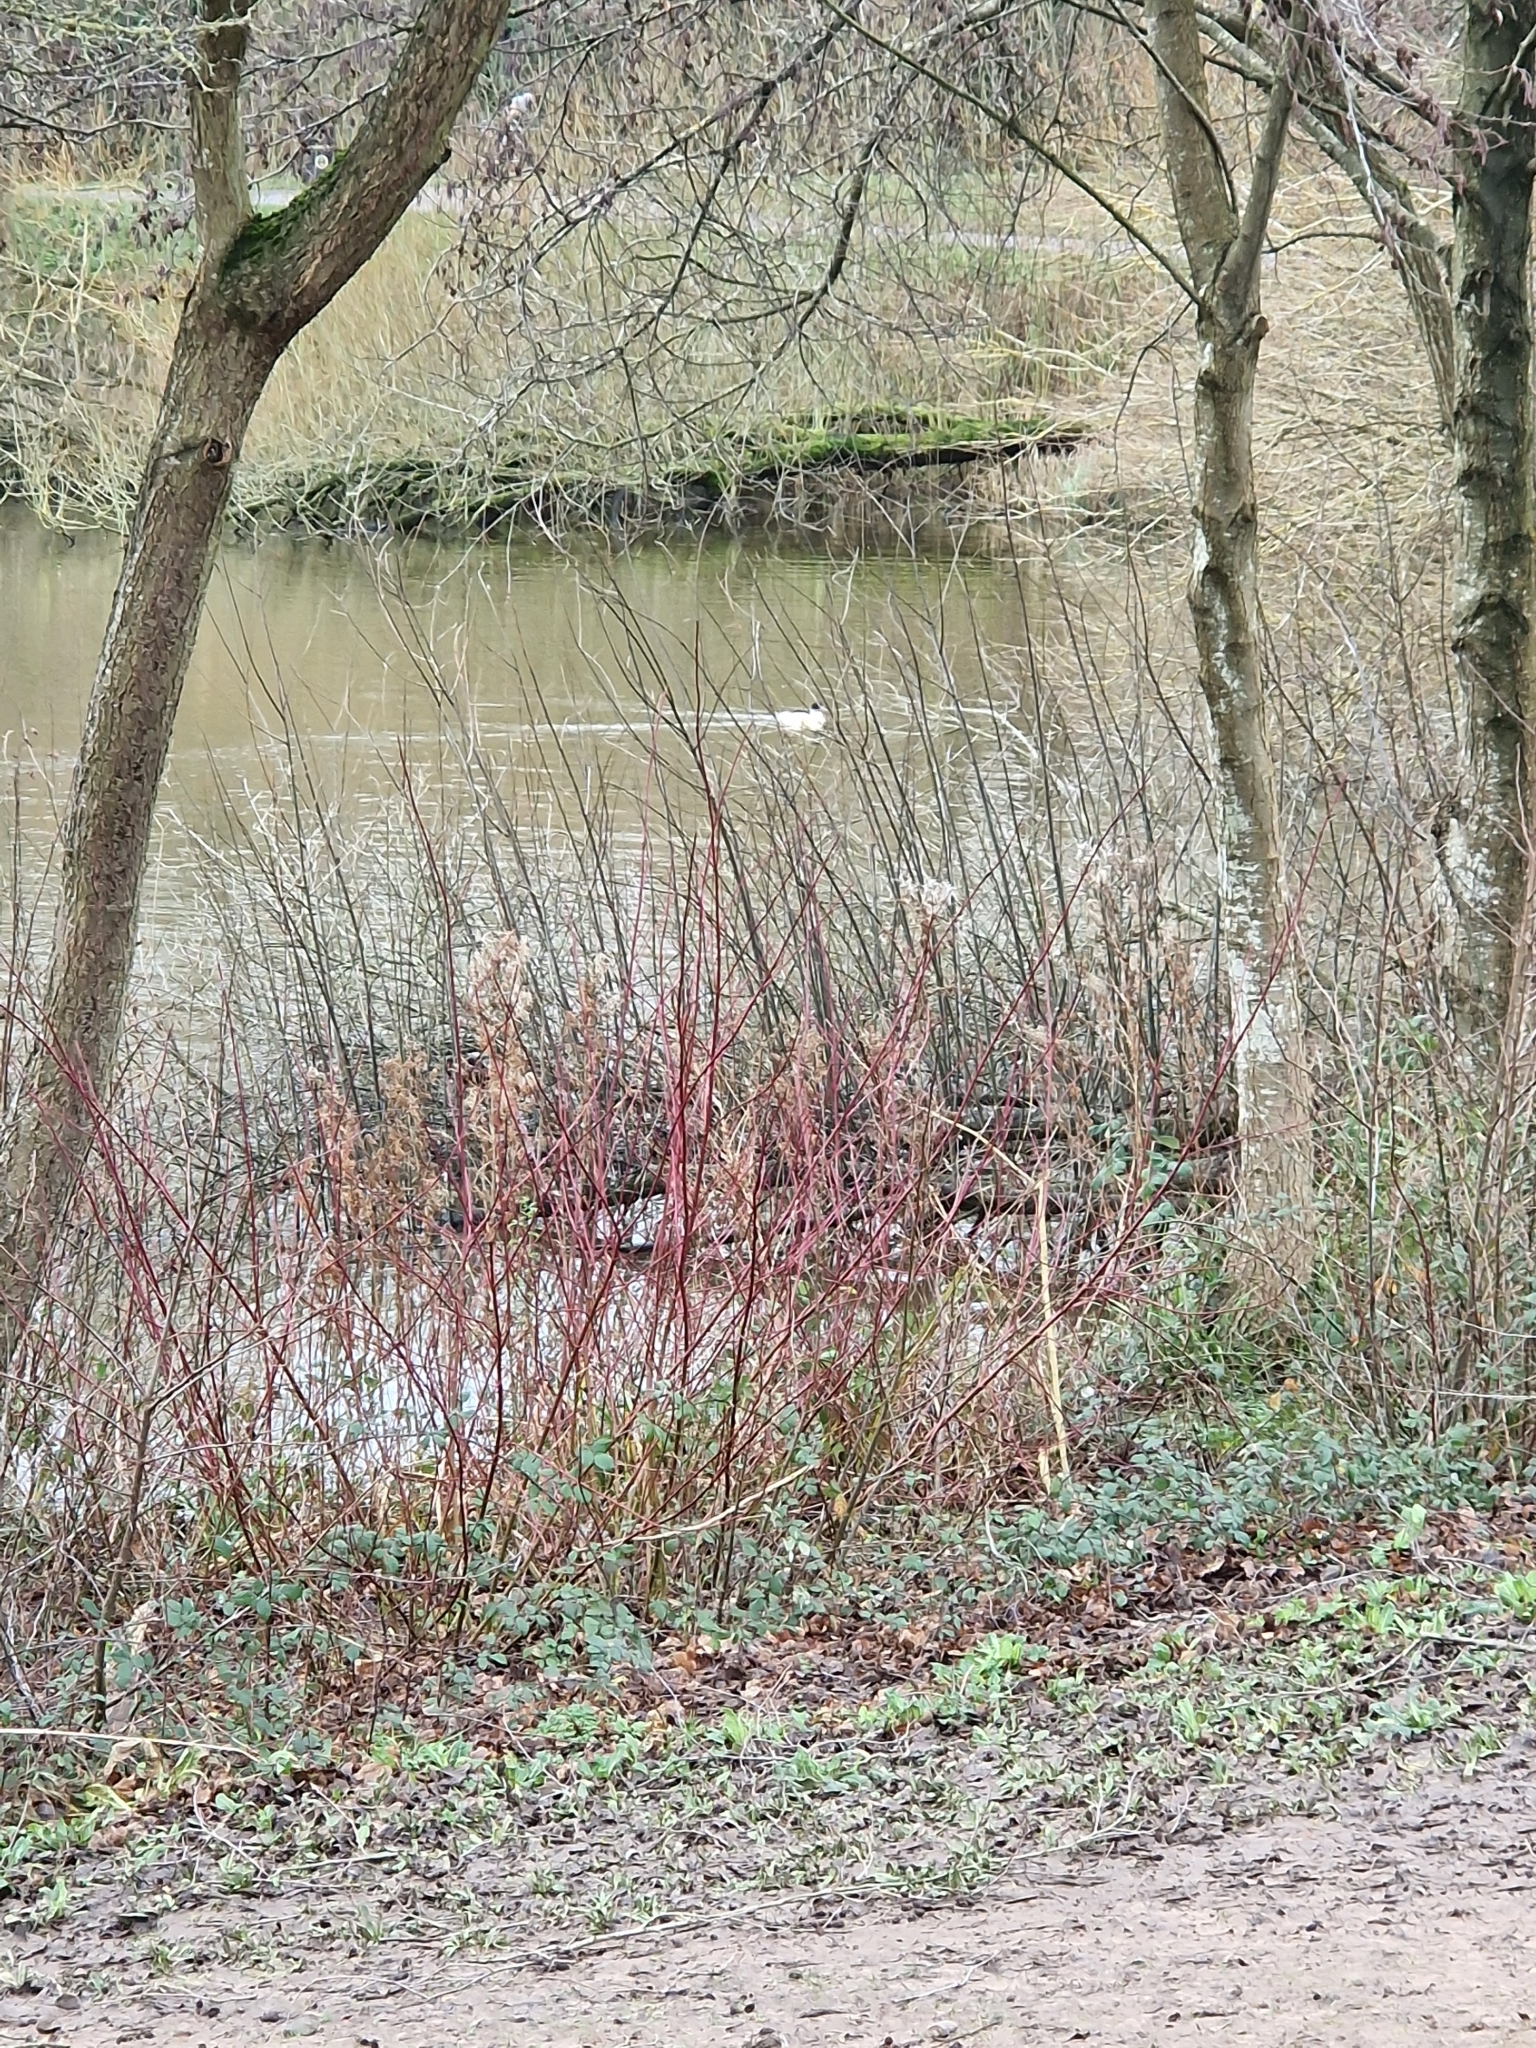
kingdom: Animalia
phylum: Chordata
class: Aves
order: Anseriformes
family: Anatidae
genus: Mergus
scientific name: Mergus merganser
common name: Common merganser
